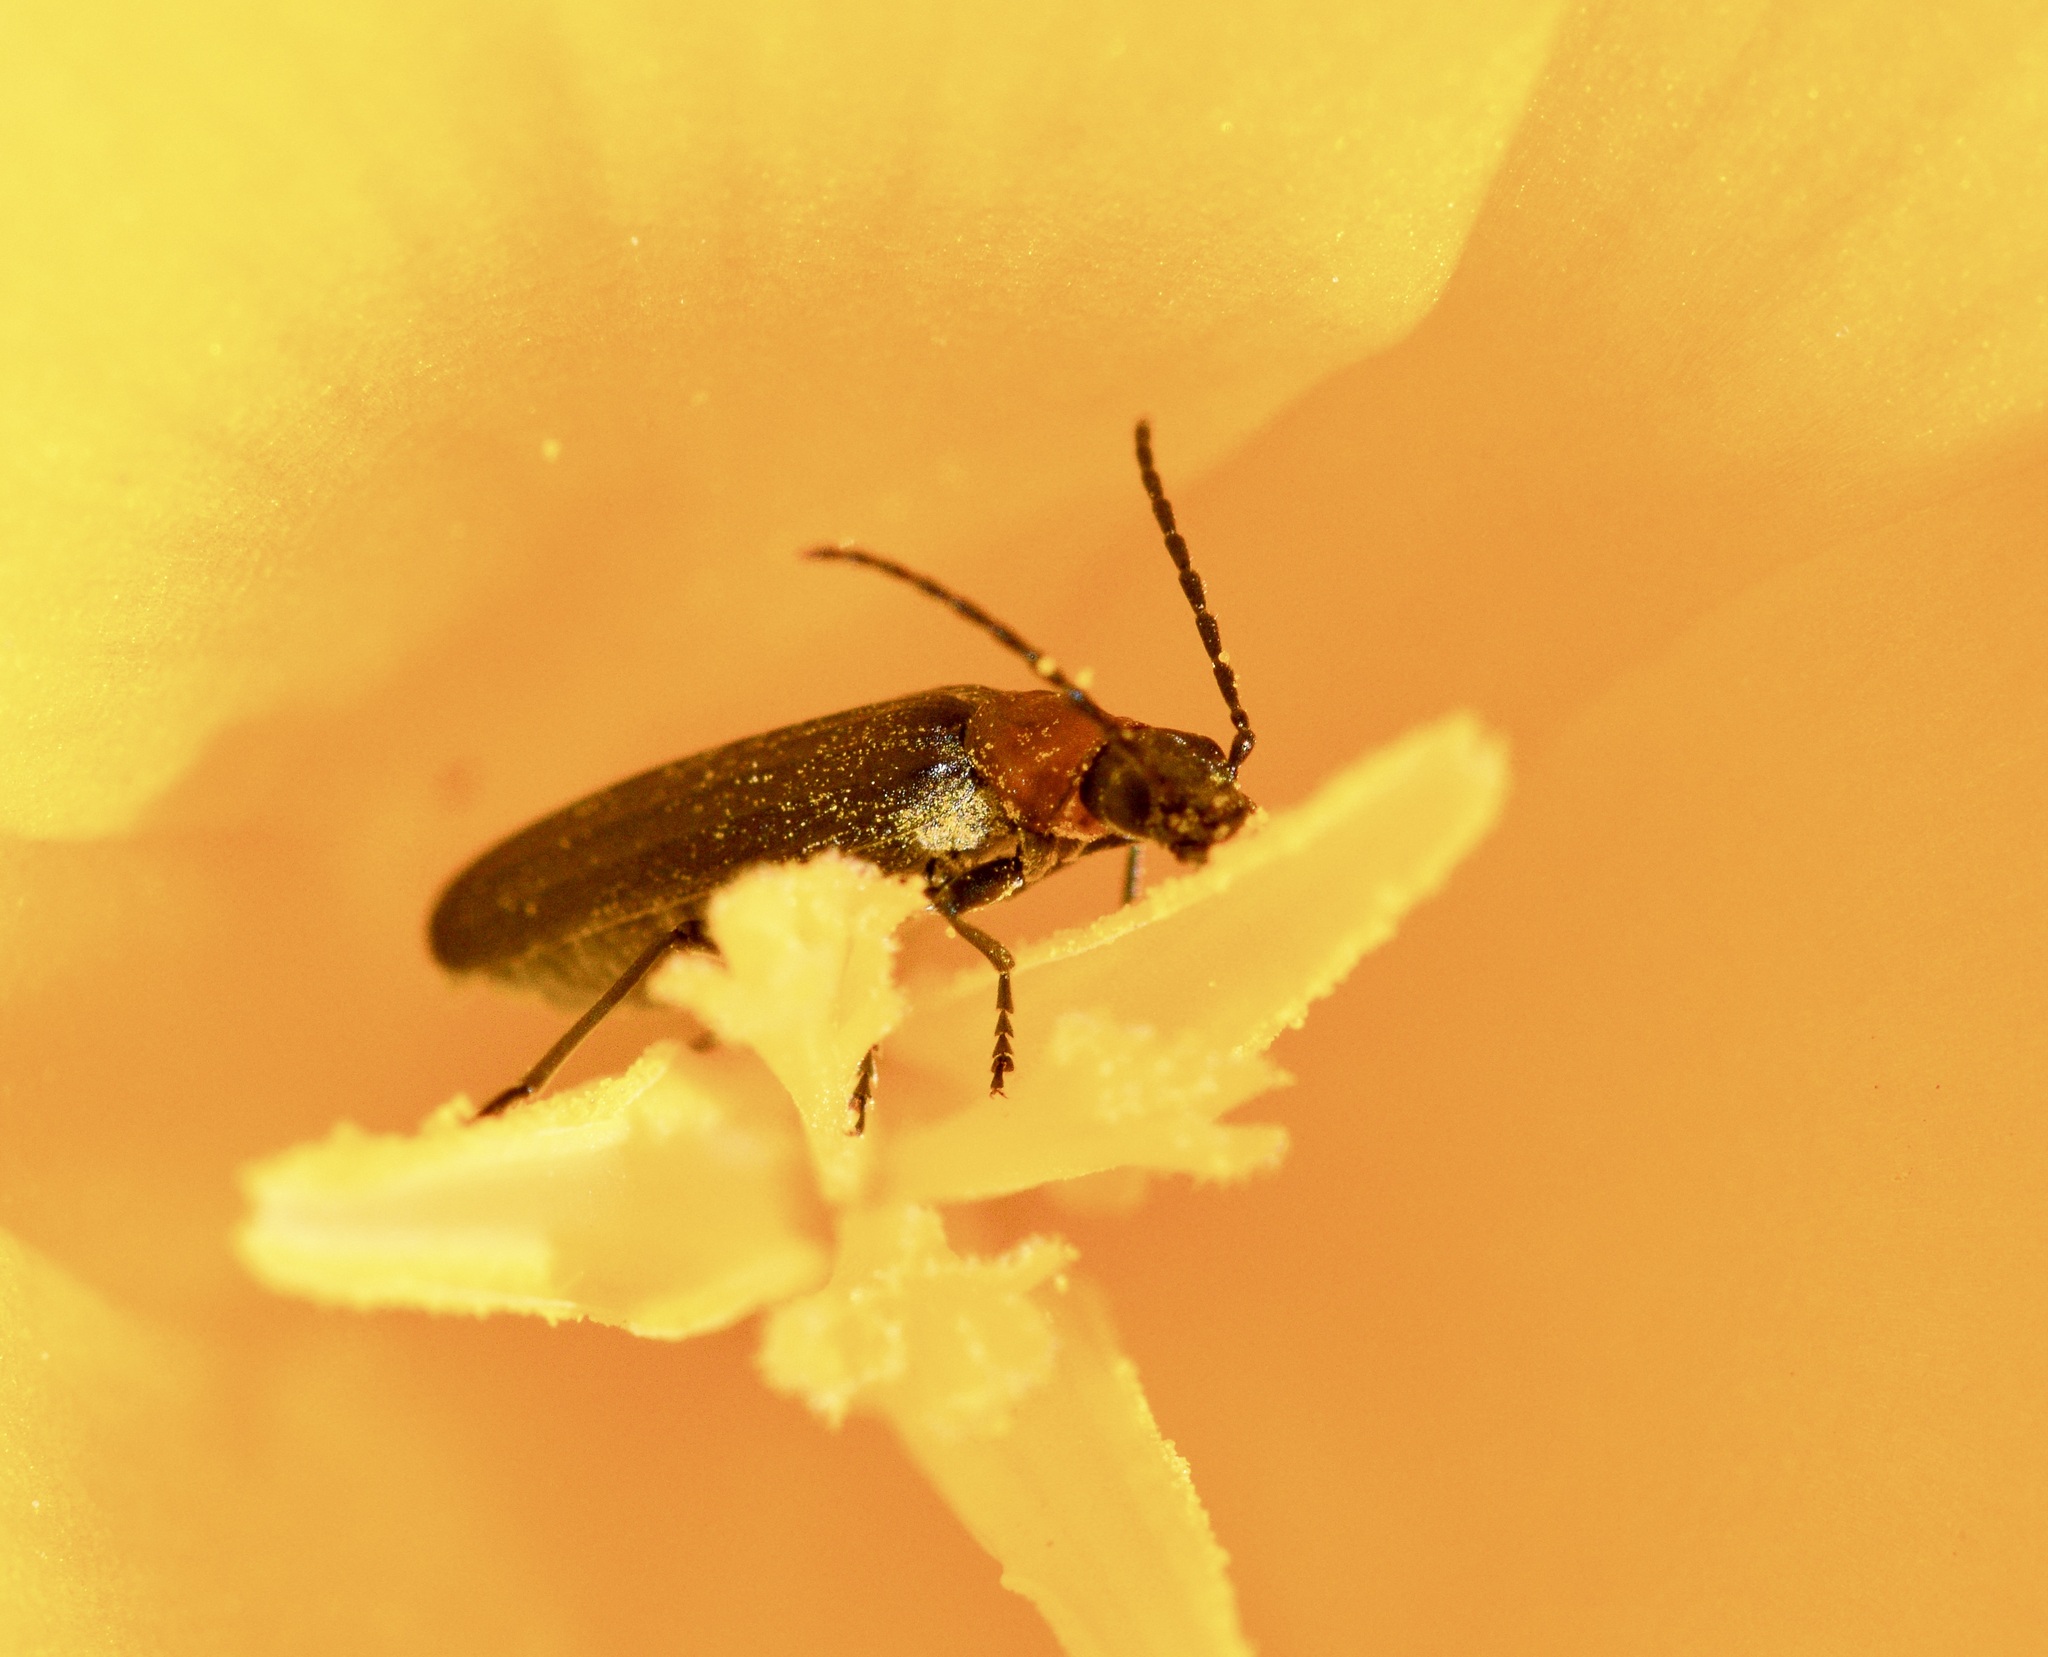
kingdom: Animalia
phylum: Arthropoda
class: Insecta
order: Coleoptera
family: Oedemeridae
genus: Ischnomera
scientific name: Ischnomera
